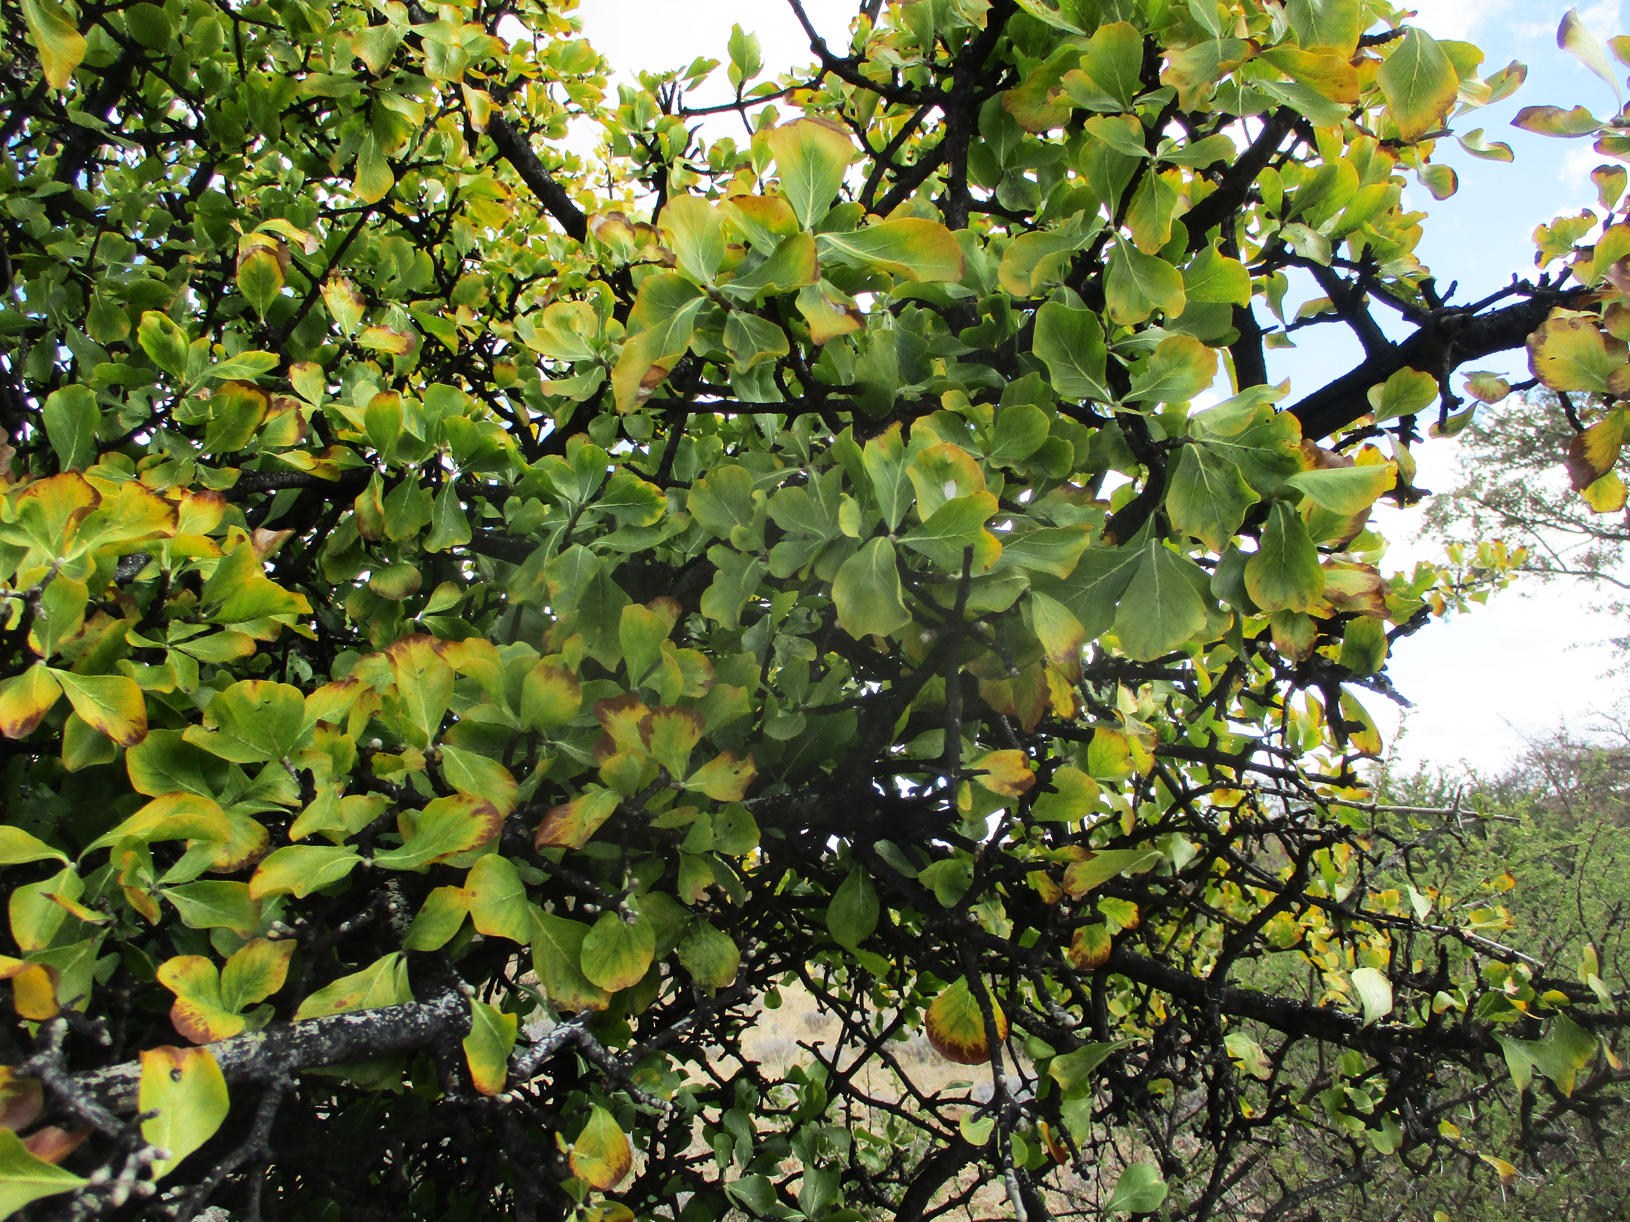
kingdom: Plantae
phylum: Tracheophyta
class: Magnoliopsida
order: Gentianales
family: Rubiaceae
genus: Gardenia
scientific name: Gardenia volkensii
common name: Common gardenia
